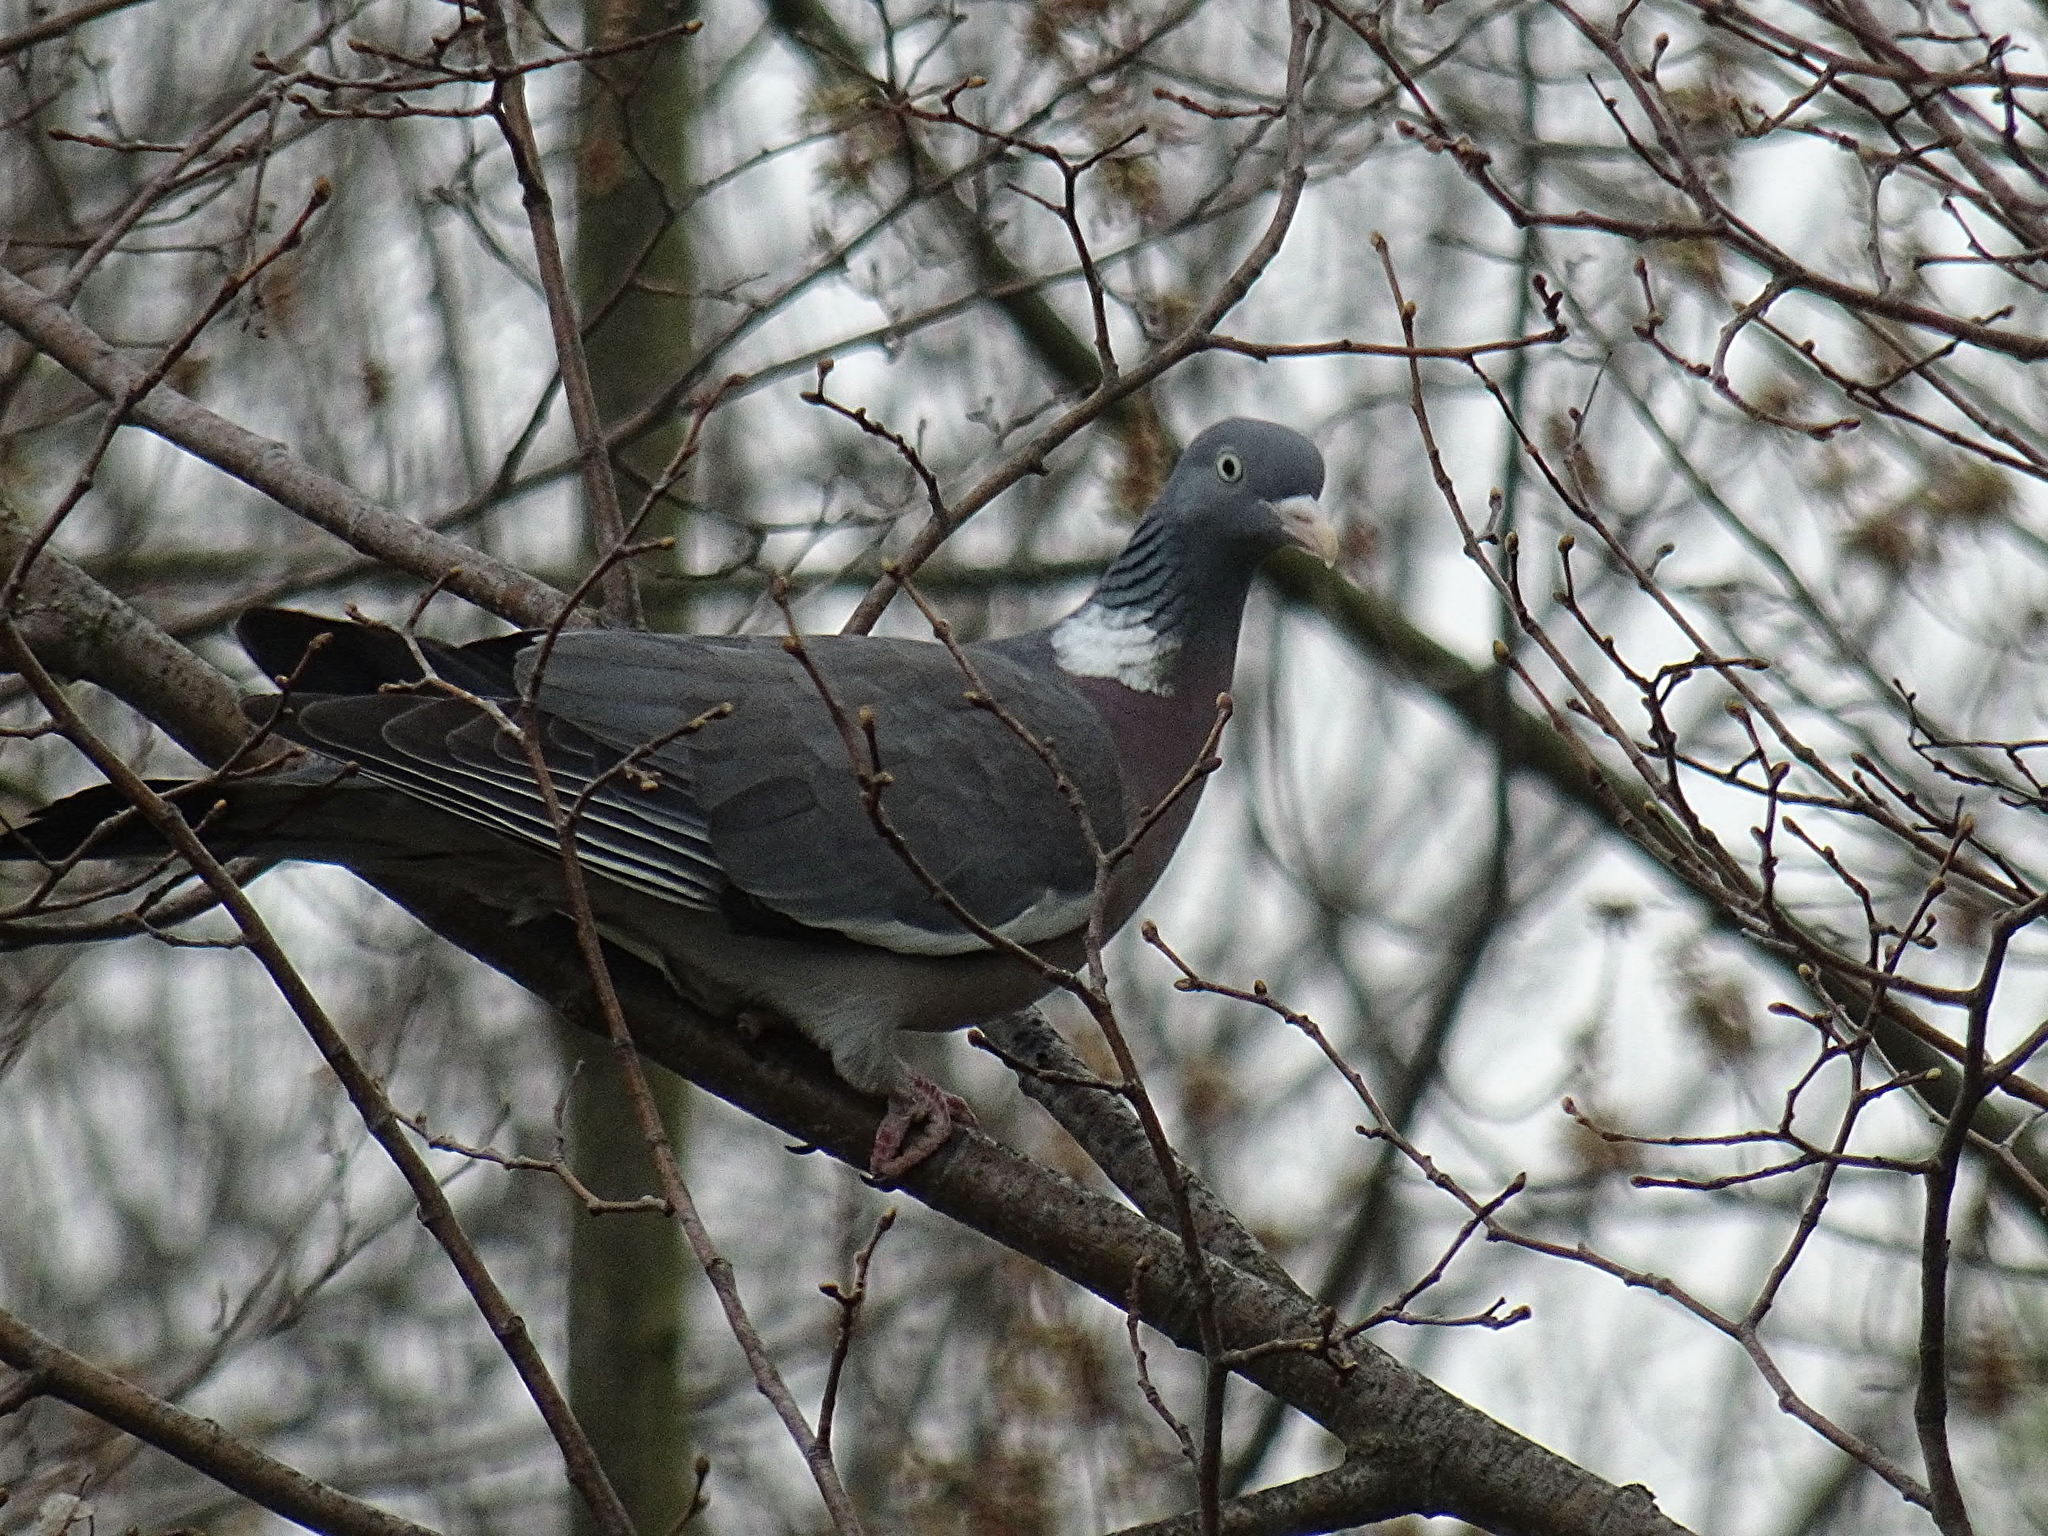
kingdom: Animalia
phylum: Chordata
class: Aves
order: Columbiformes
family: Columbidae
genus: Columba
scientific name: Columba palumbus
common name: Common wood pigeon
